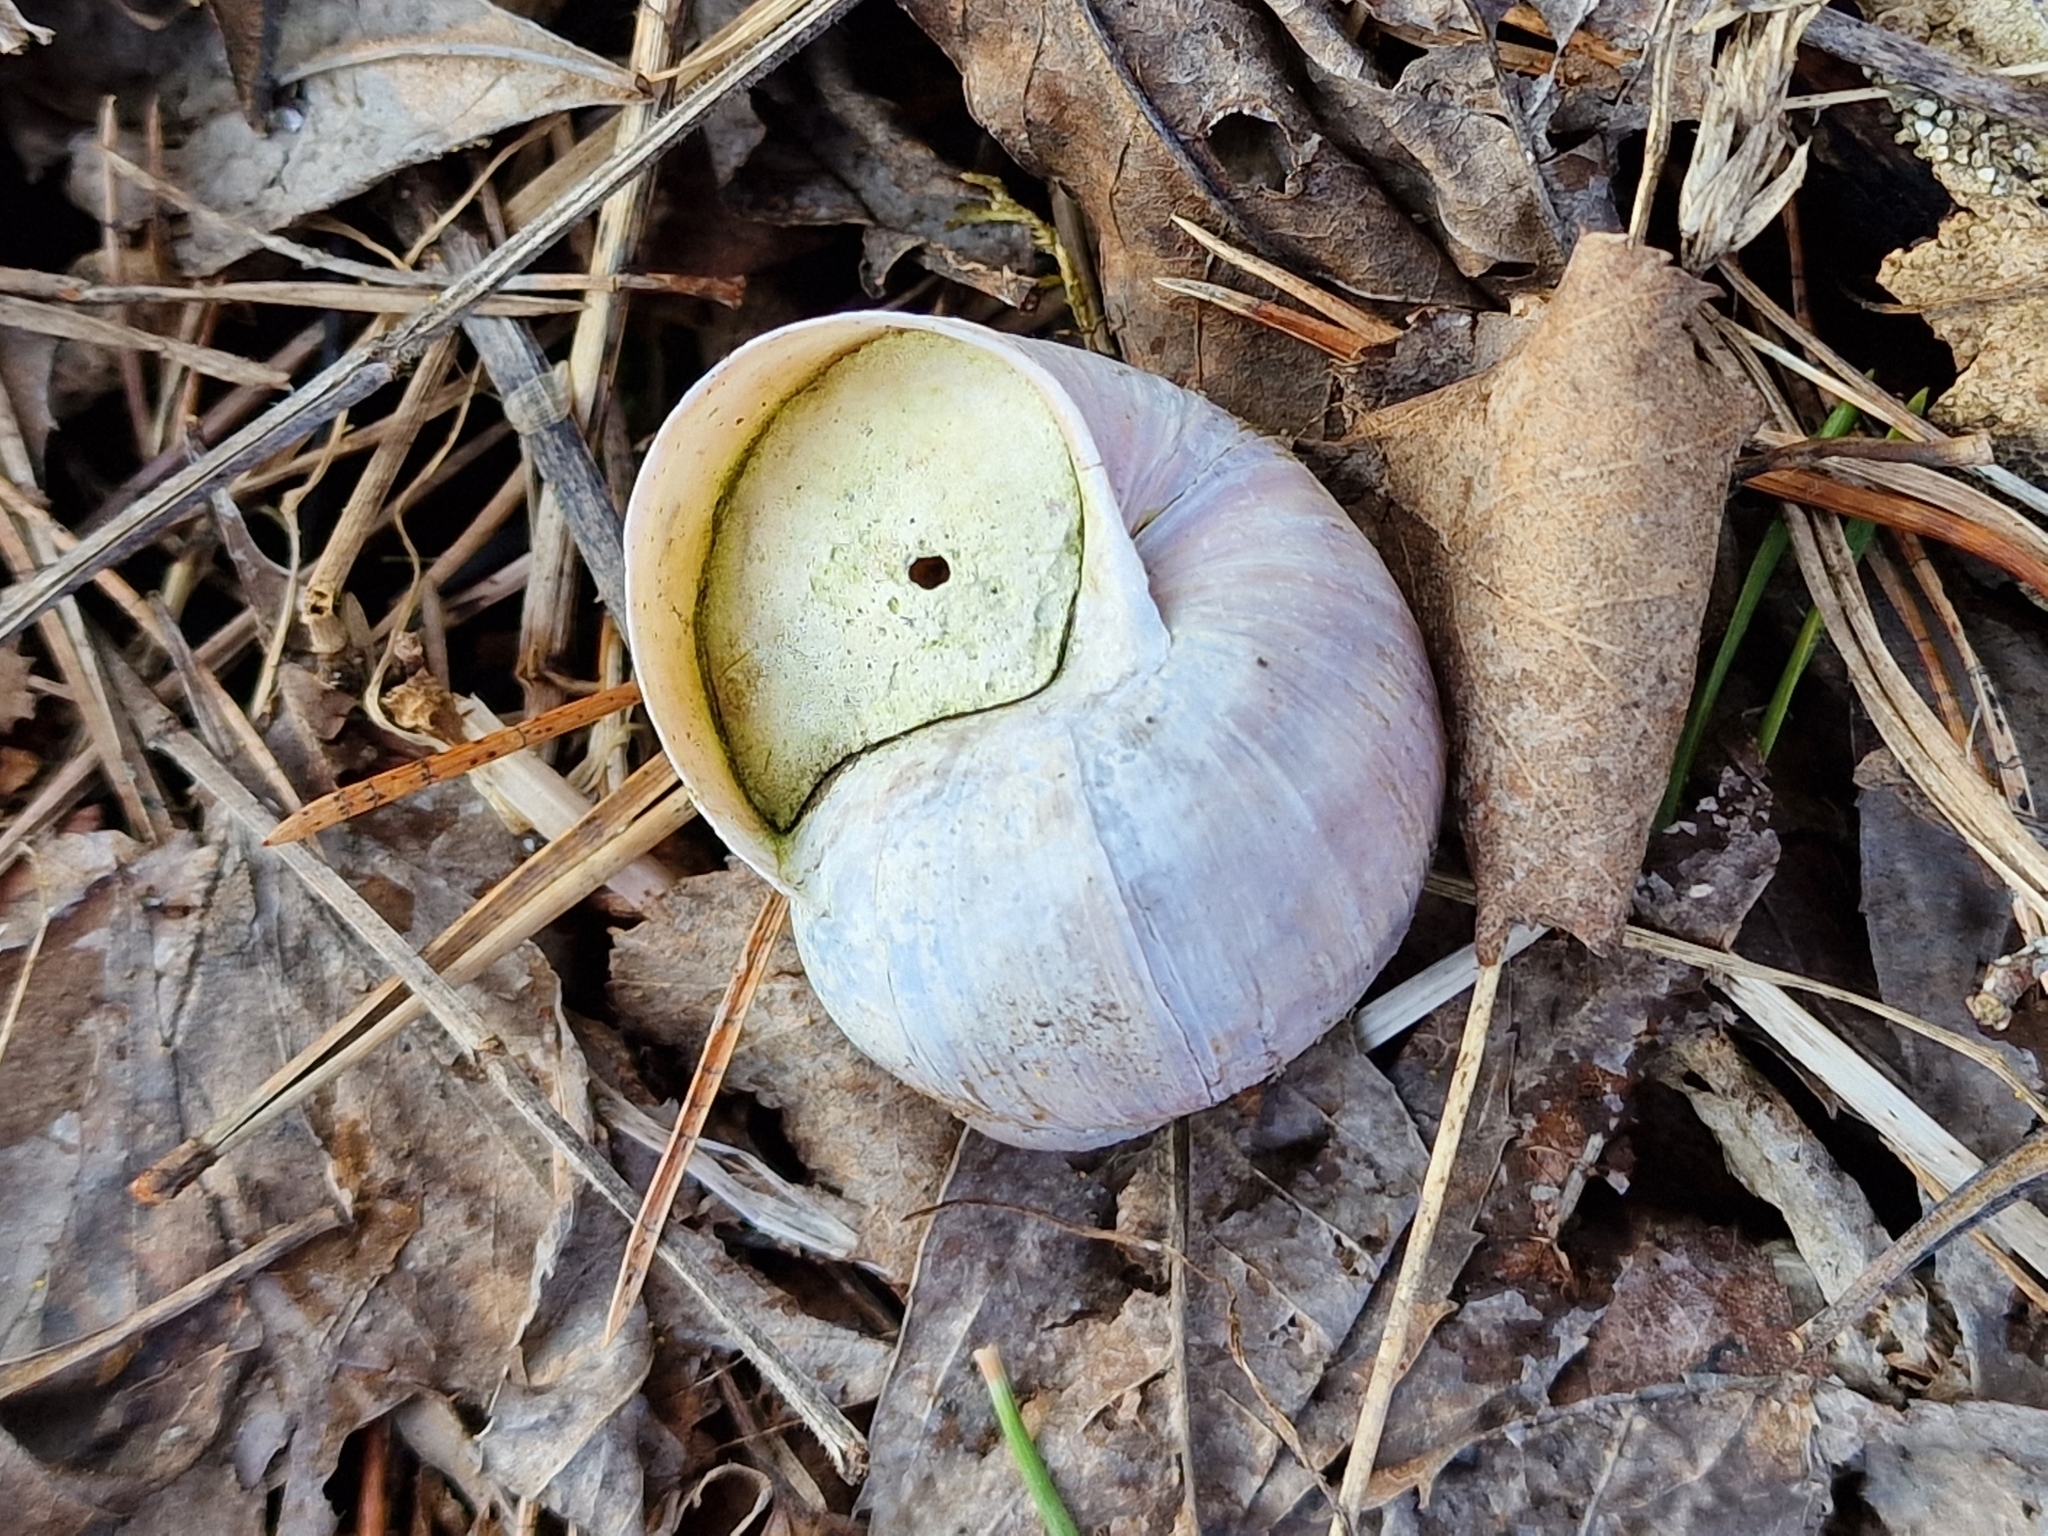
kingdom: Animalia
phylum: Mollusca
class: Gastropoda
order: Stylommatophora
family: Helicidae
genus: Helix
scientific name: Helix pomatia
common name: Roman snail
